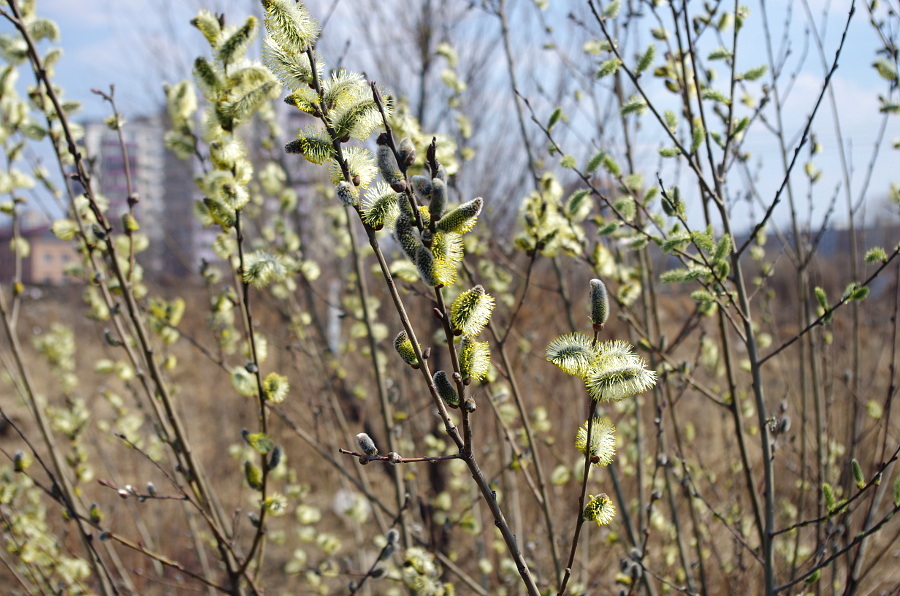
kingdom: Plantae
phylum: Tracheophyta
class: Magnoliopsida
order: Malpighiales
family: Salicaceae
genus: Salix
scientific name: Salix caprea
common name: Goat willow
